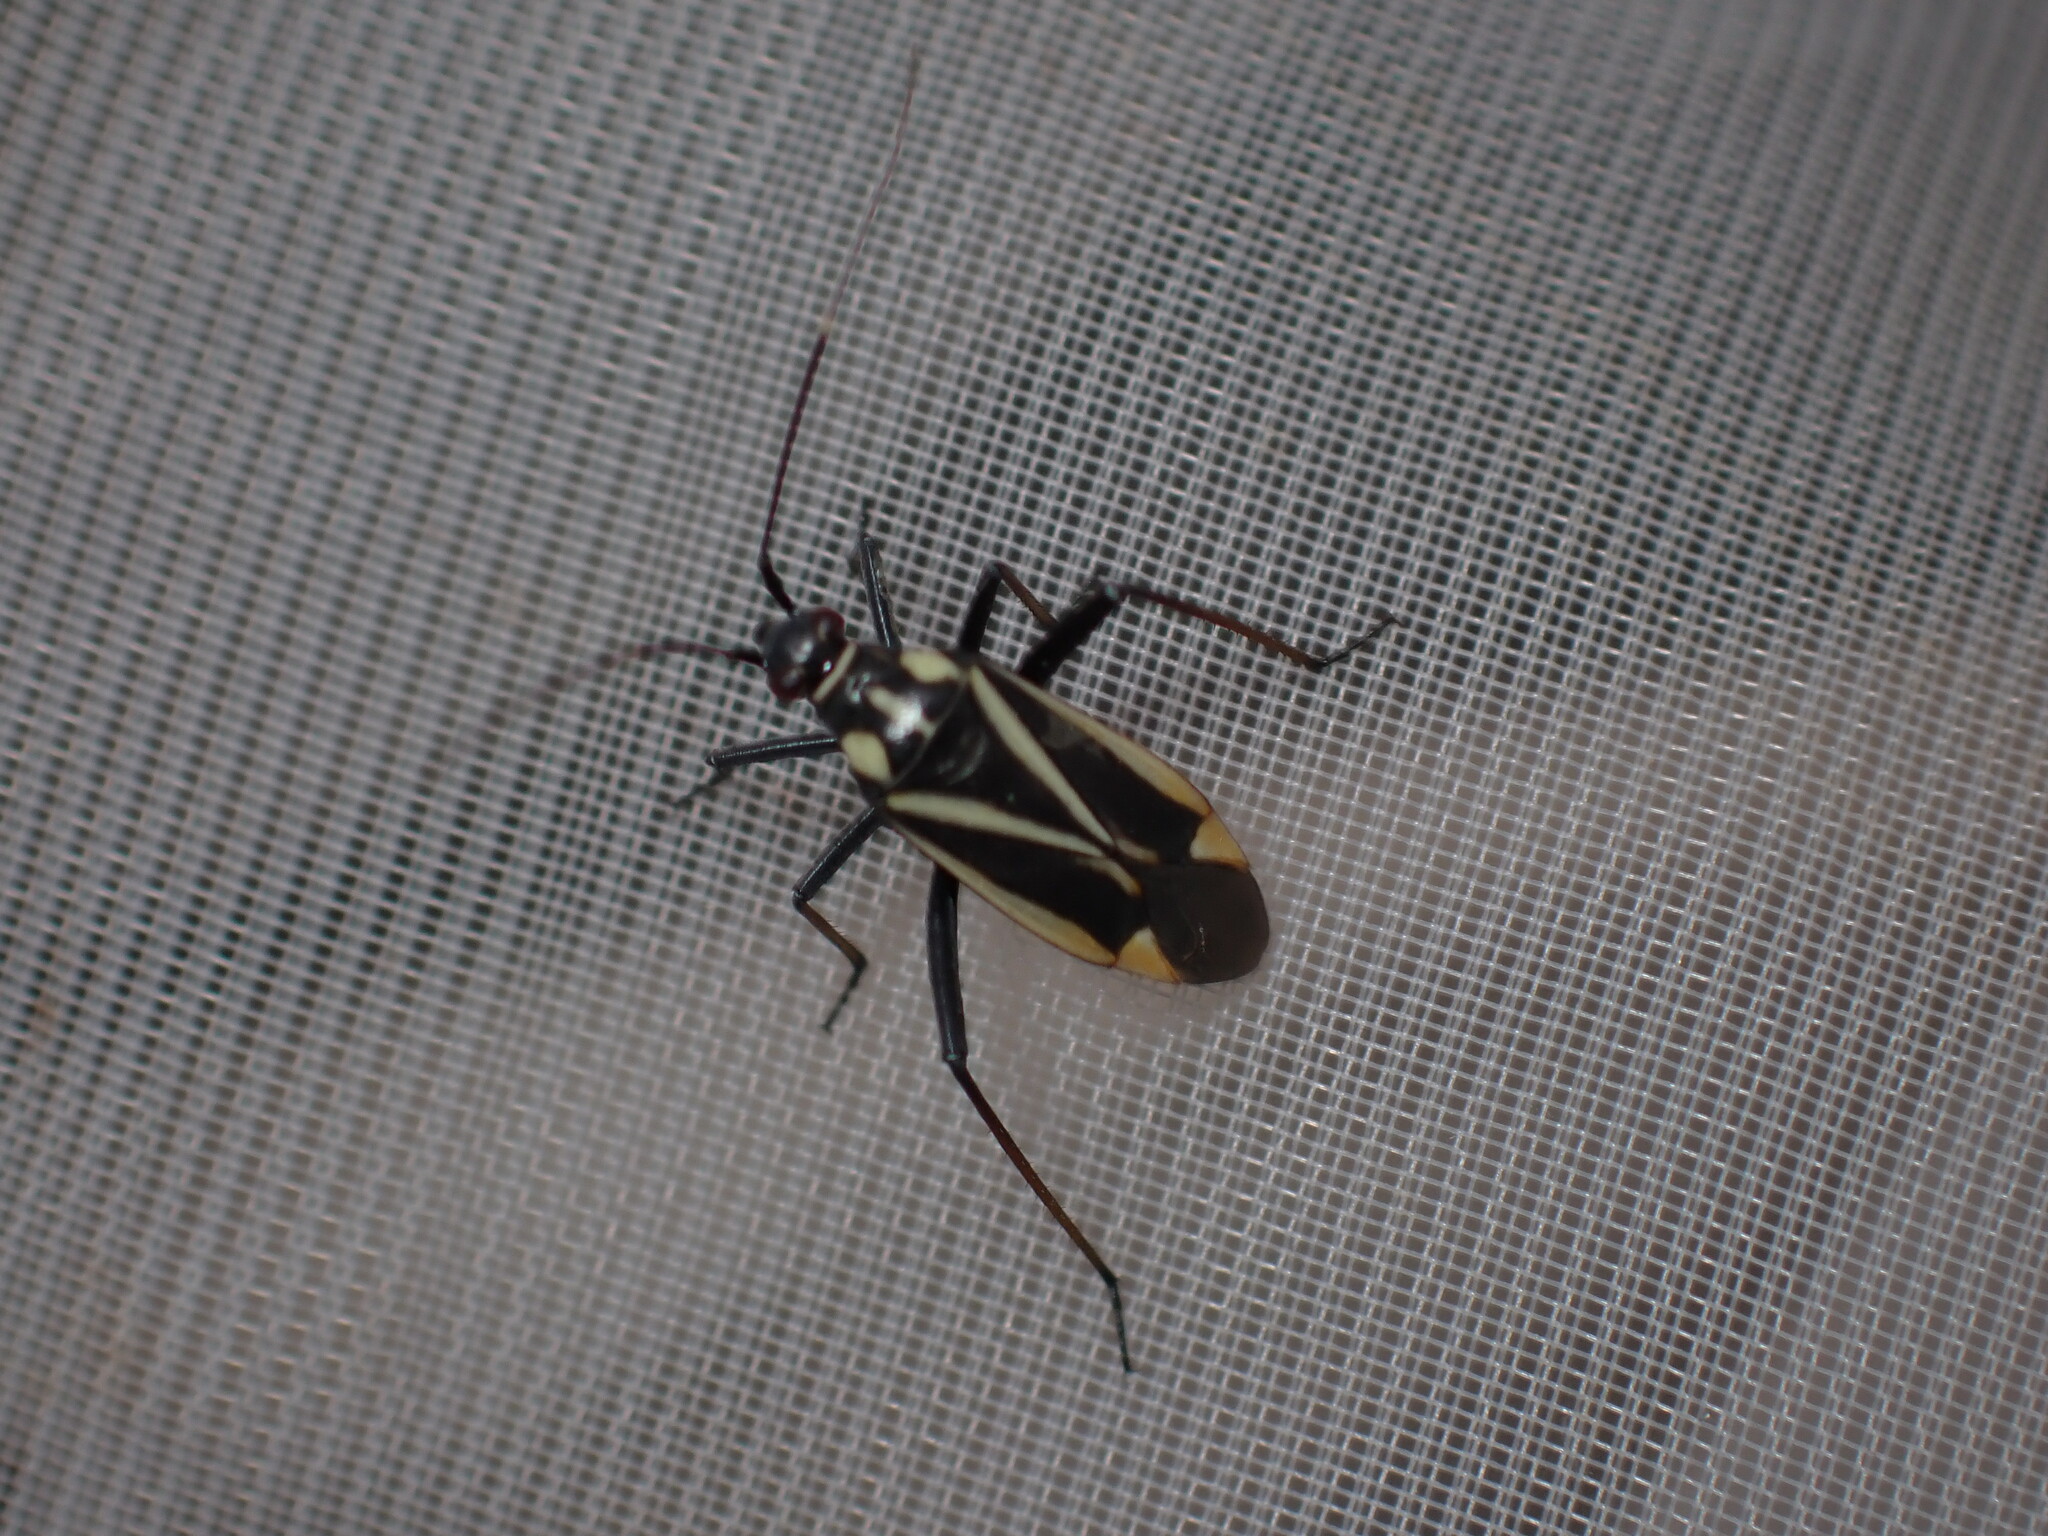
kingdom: Animalia
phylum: Arthropoda
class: Insecta
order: Hemiptera
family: Miridae
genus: Hadrodemus
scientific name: Hadrodemus m-flavum
